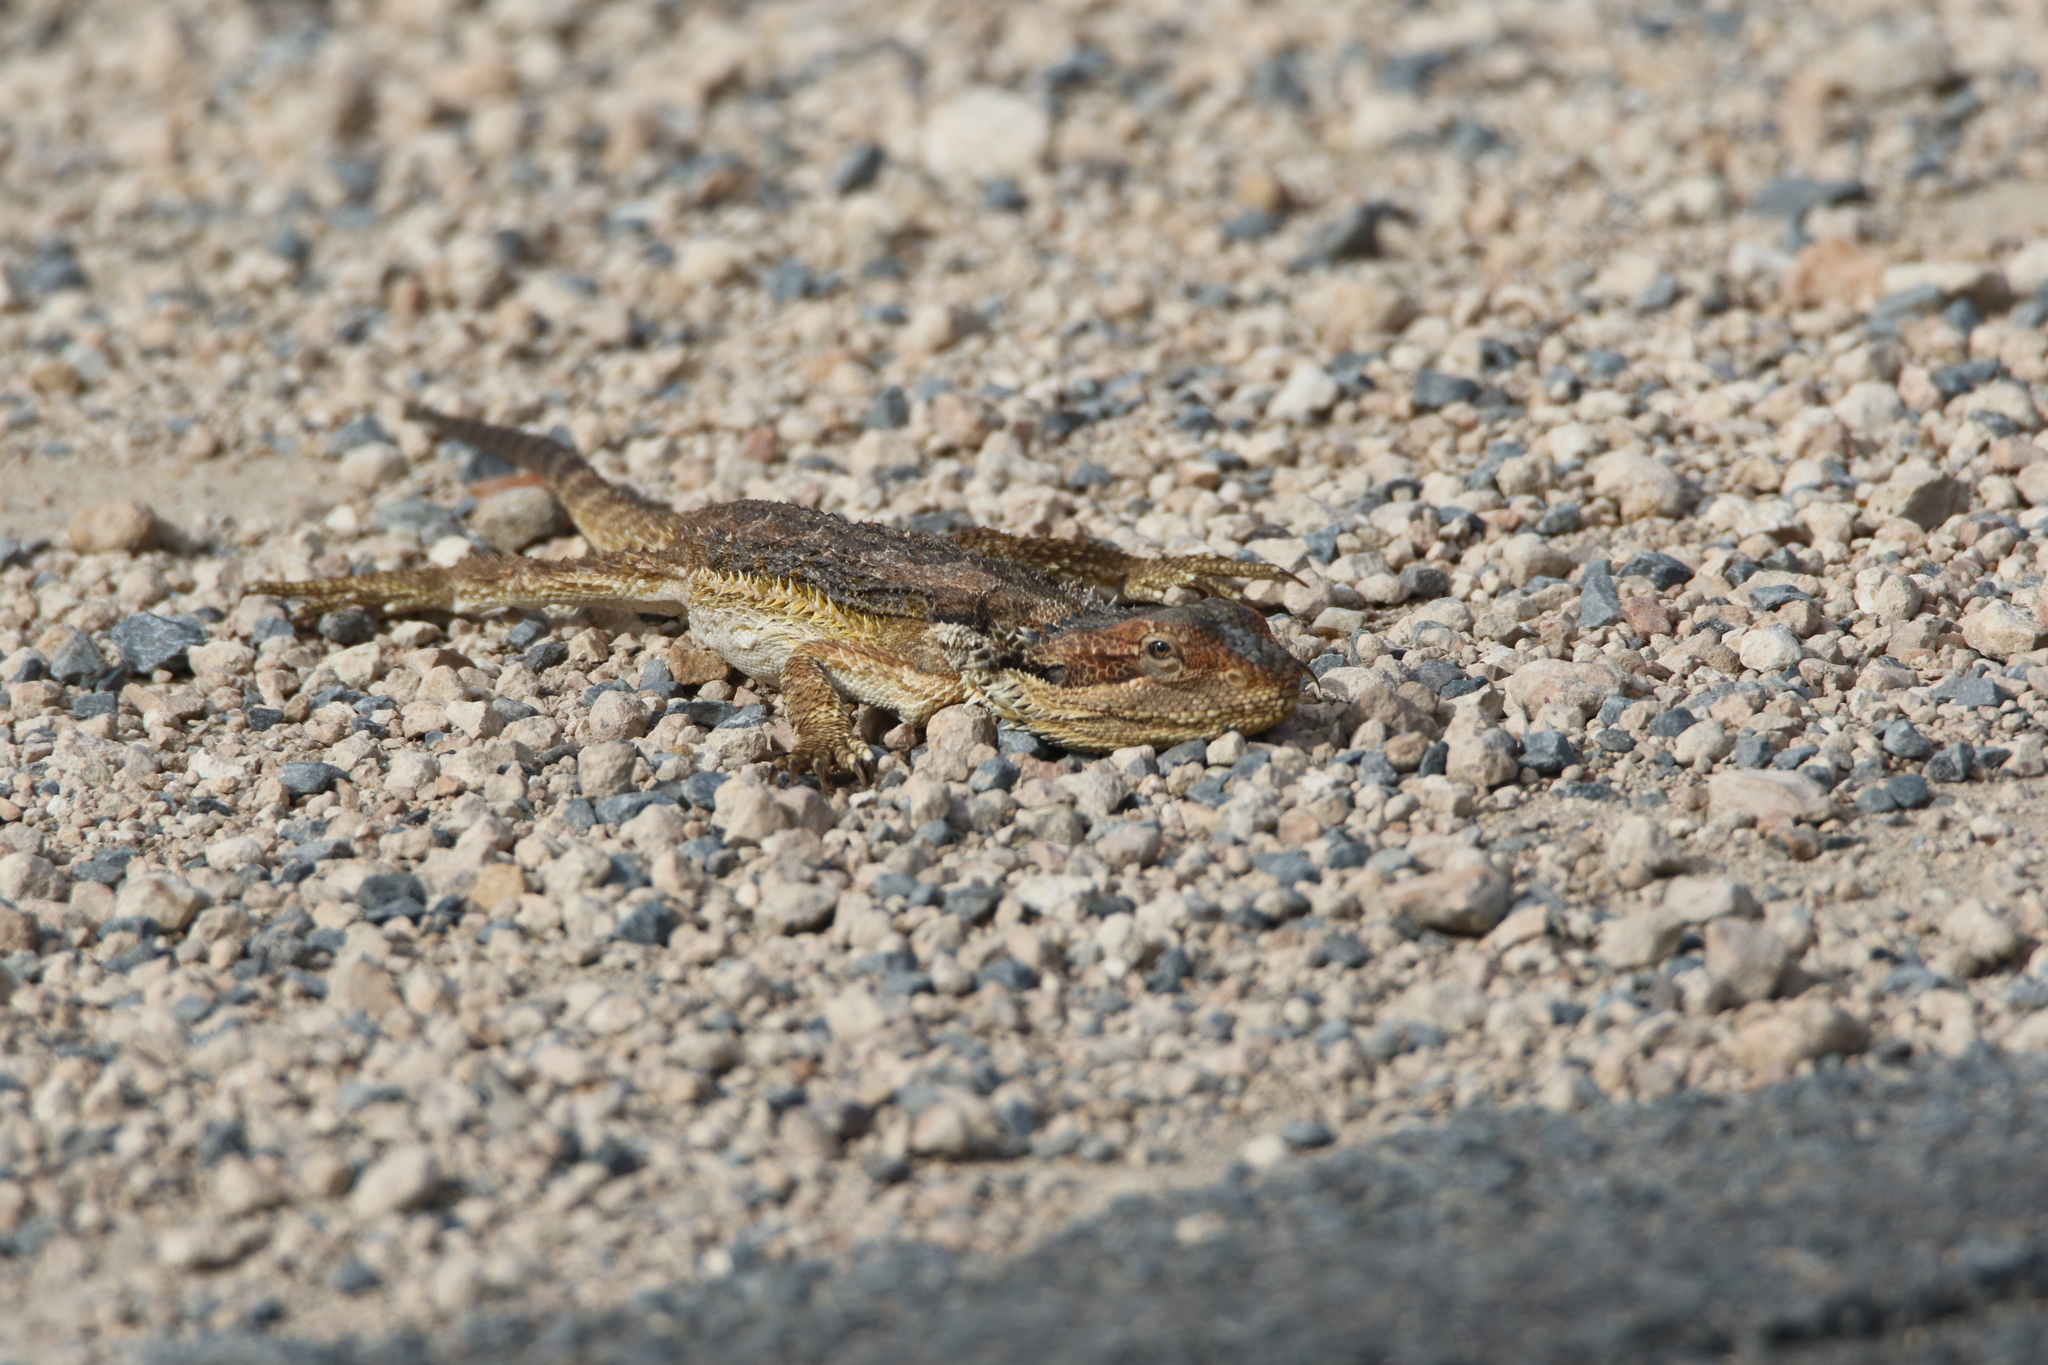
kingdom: Animalia
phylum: Chordata
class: Squamata
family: Agamidae
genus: Pogona
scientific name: Pogona barbata
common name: Bearded dragon
